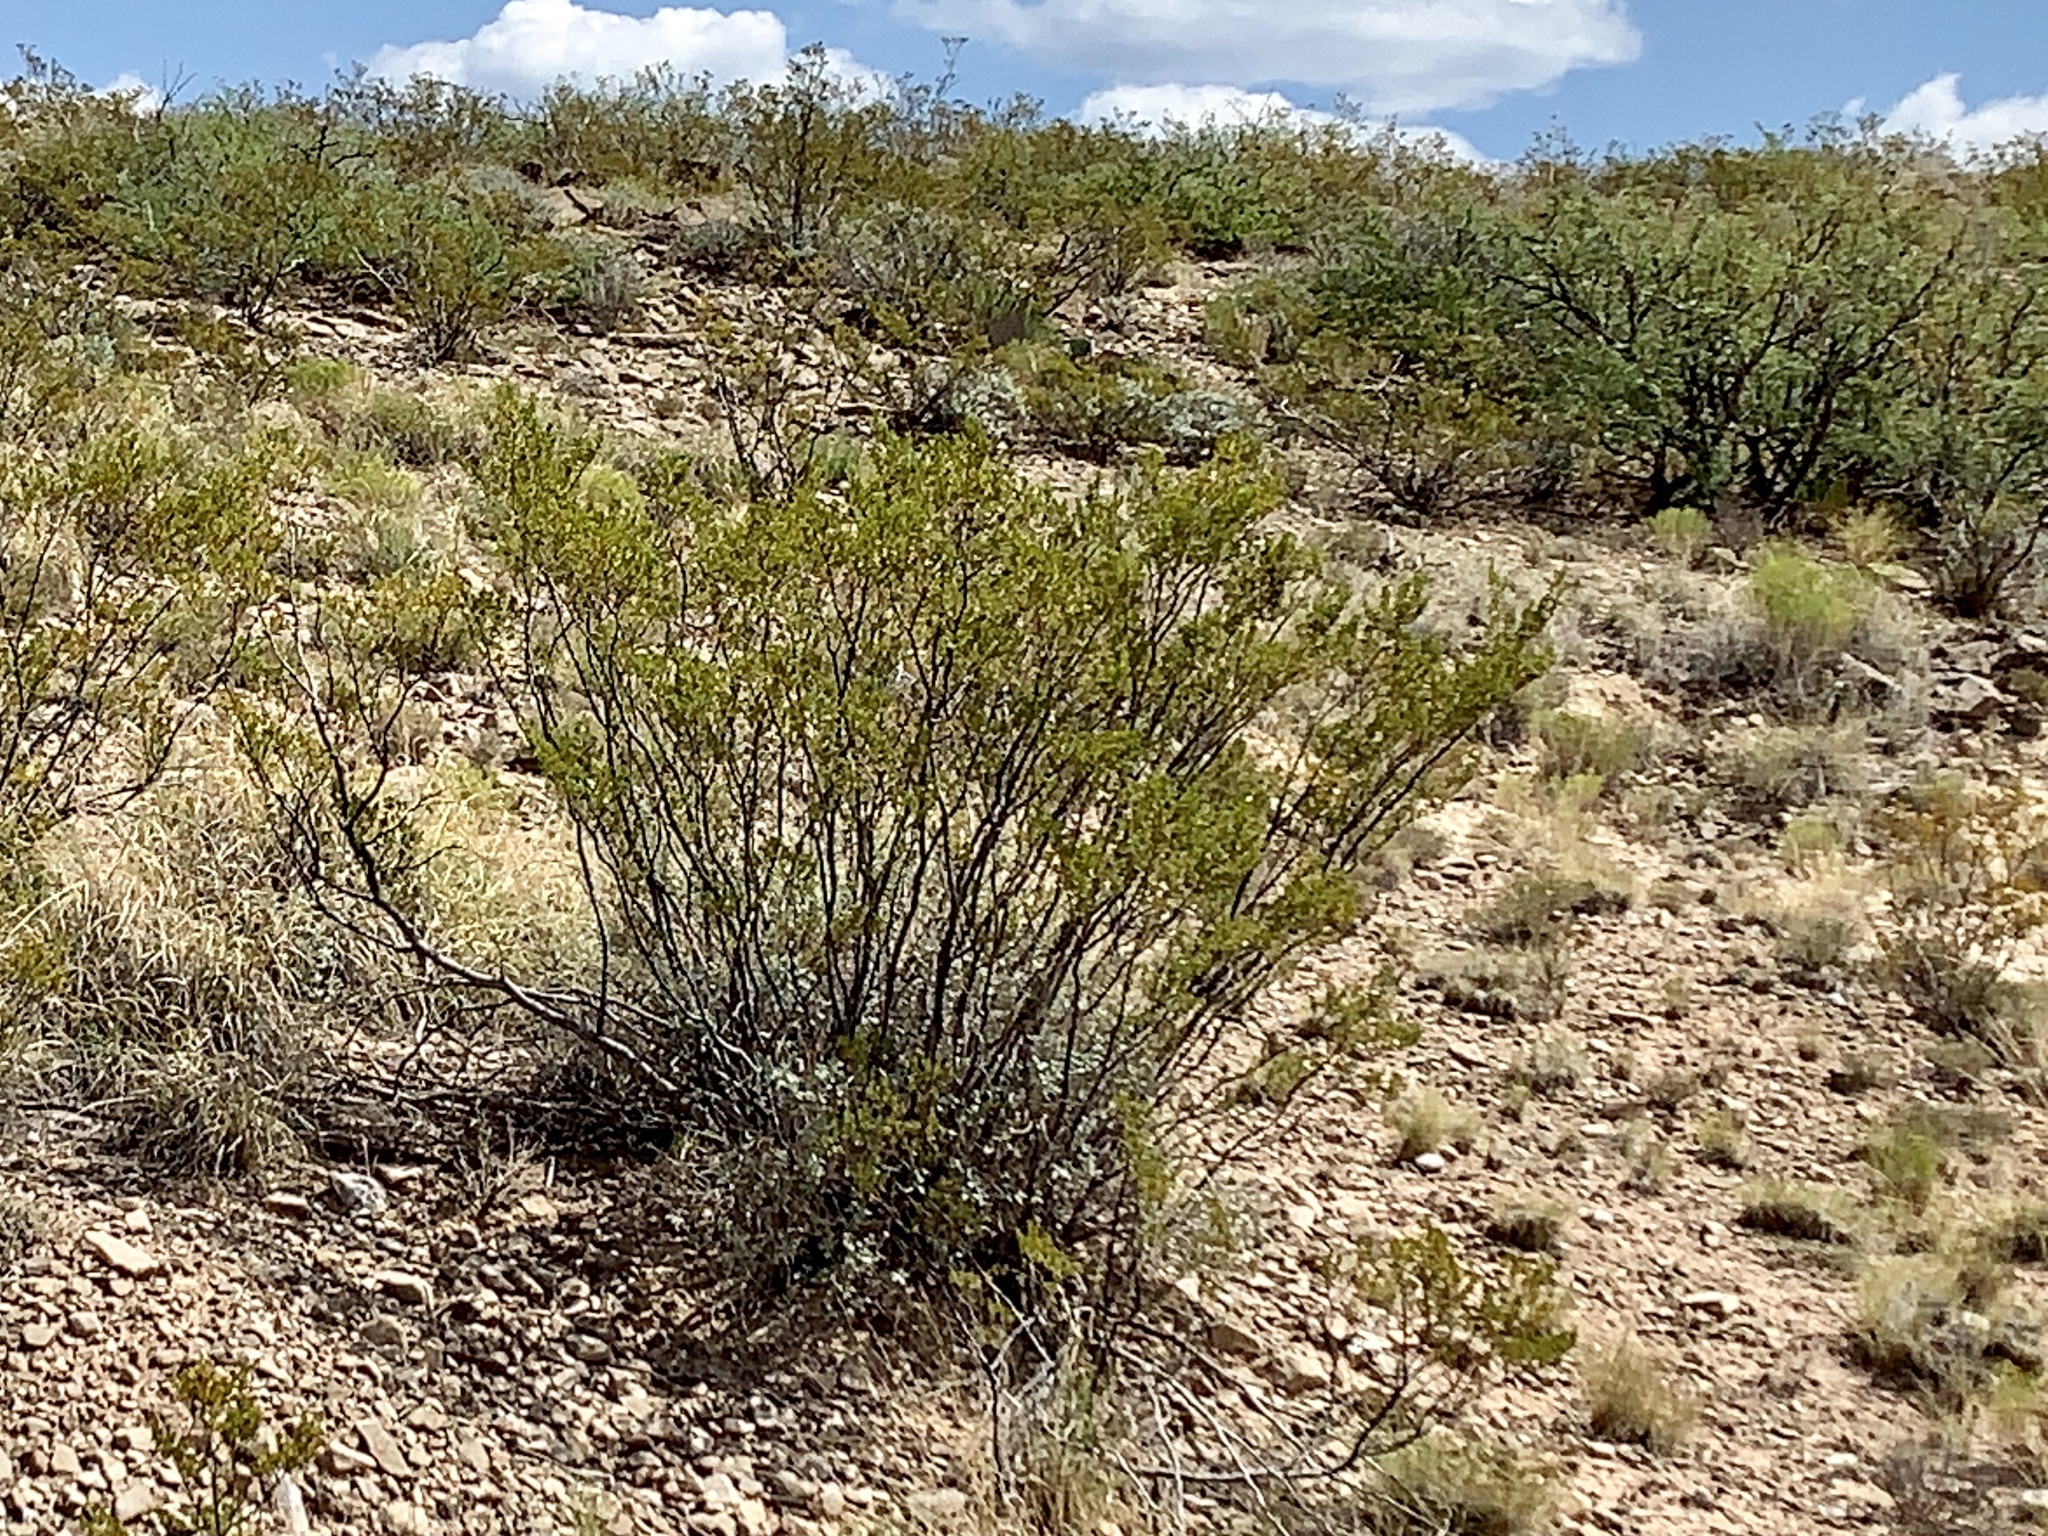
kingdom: Plantae
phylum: Tracheophyta
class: Magnoliopsida
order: Zygophyllales
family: Zygophyllaceae
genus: Larrea
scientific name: Larrea tridentata
